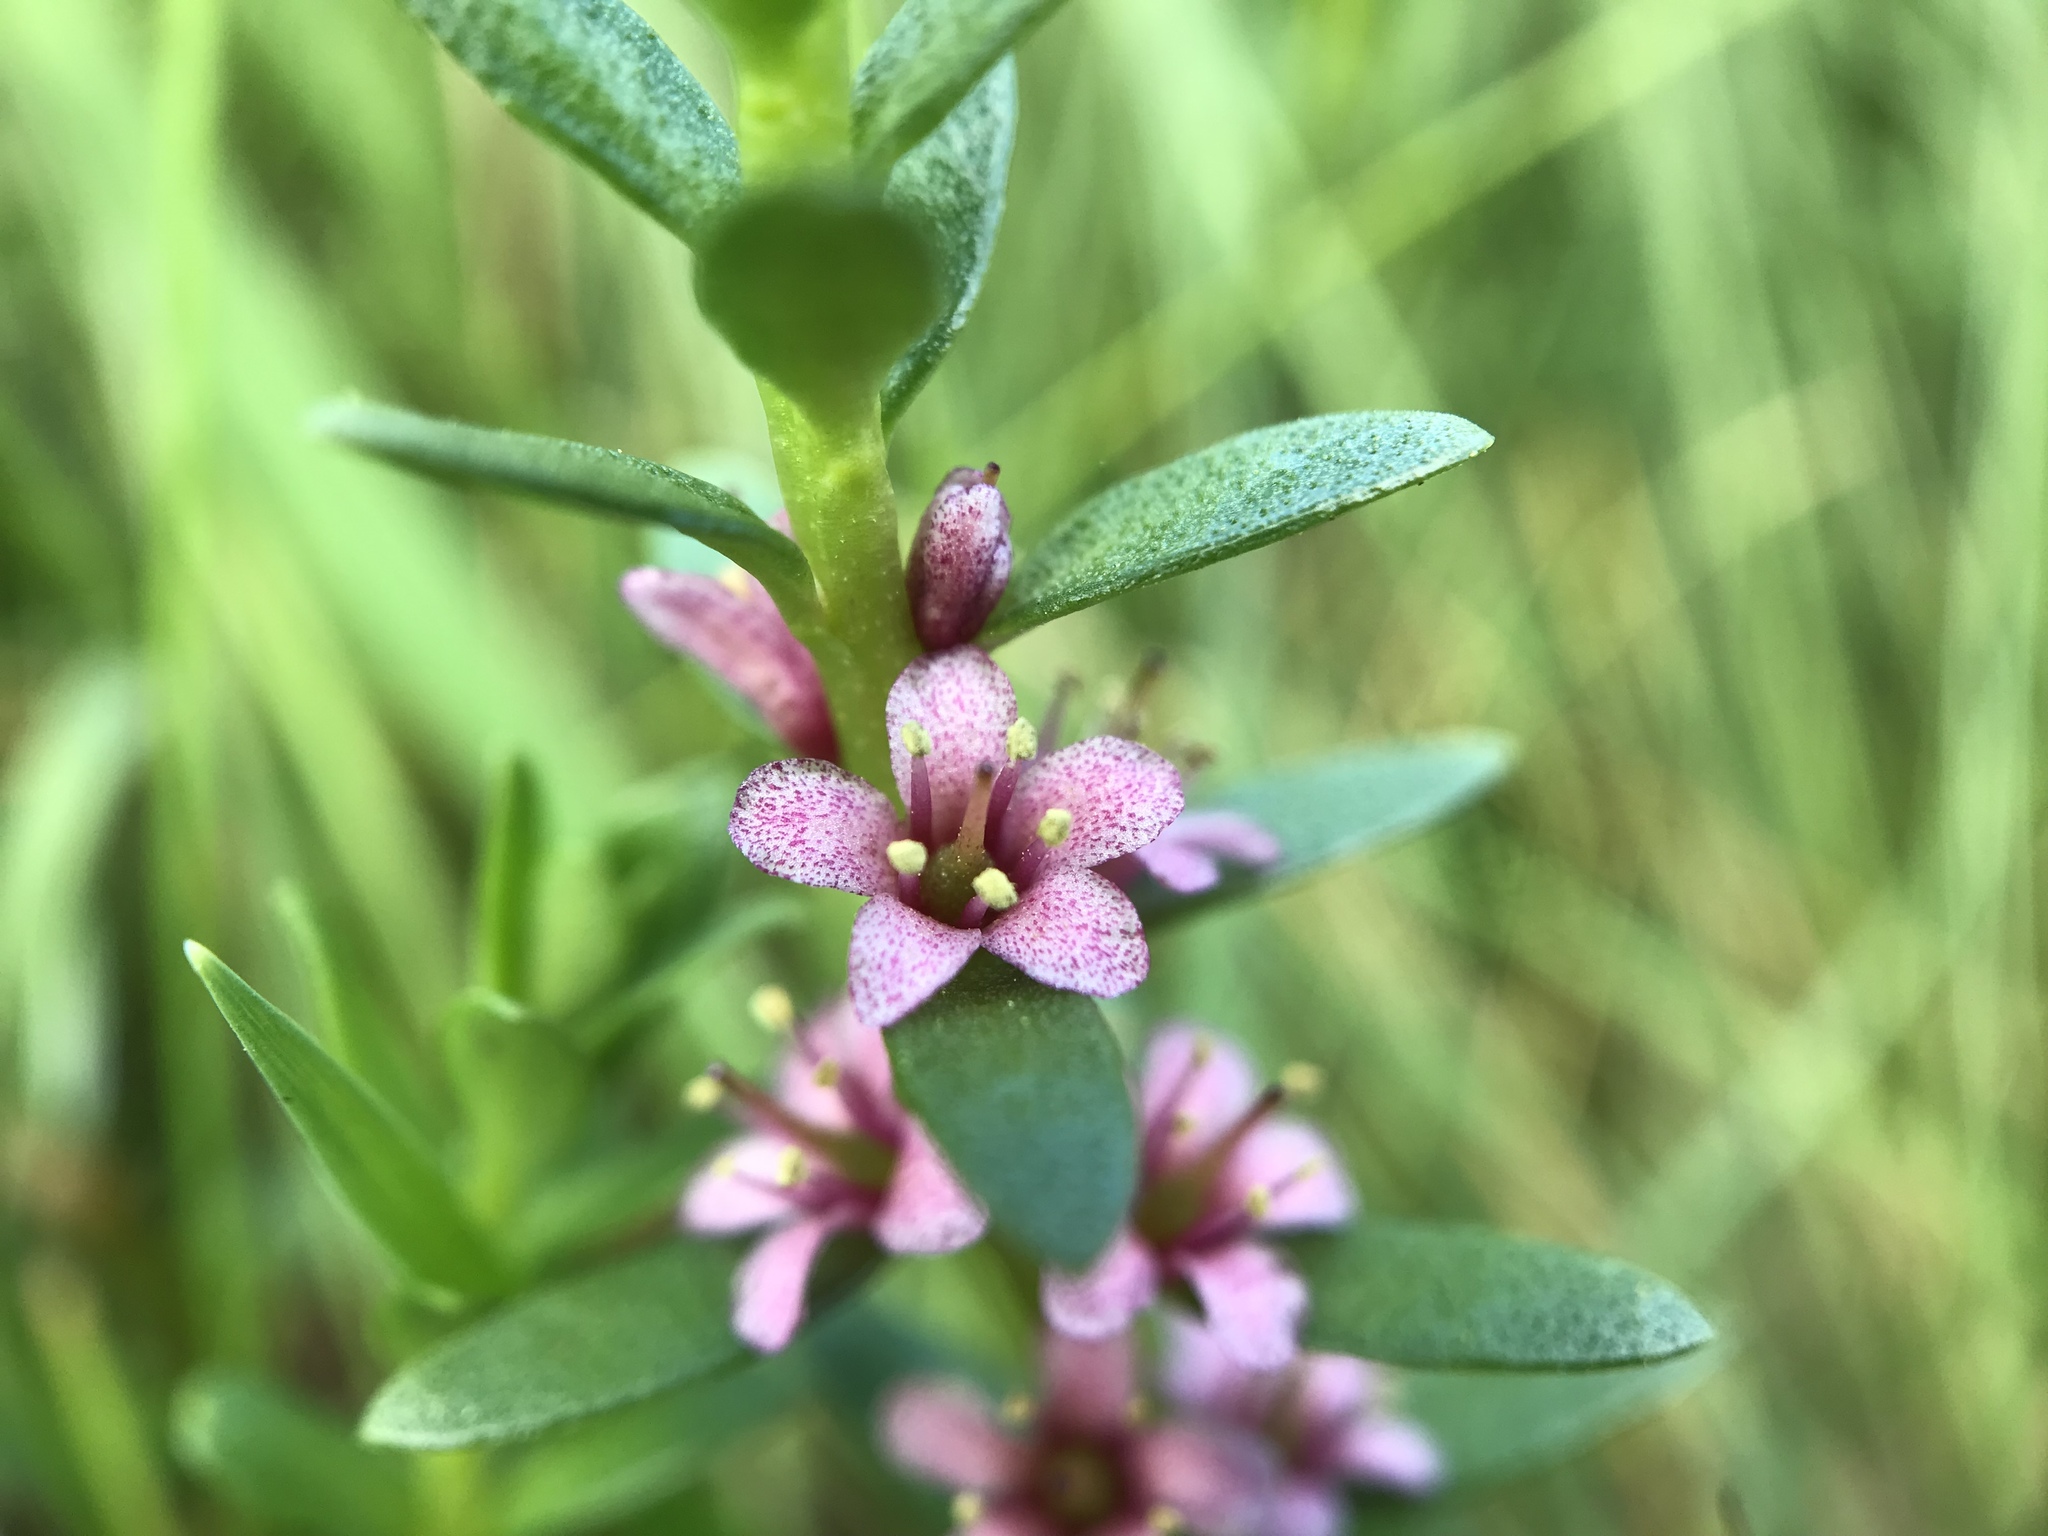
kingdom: Plantae
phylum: Tracheophyta
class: Magnoliopsida
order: Ericales
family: Primulaceae
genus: Lysimachia
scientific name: Lysimachia maritima
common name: Sea milkwort
